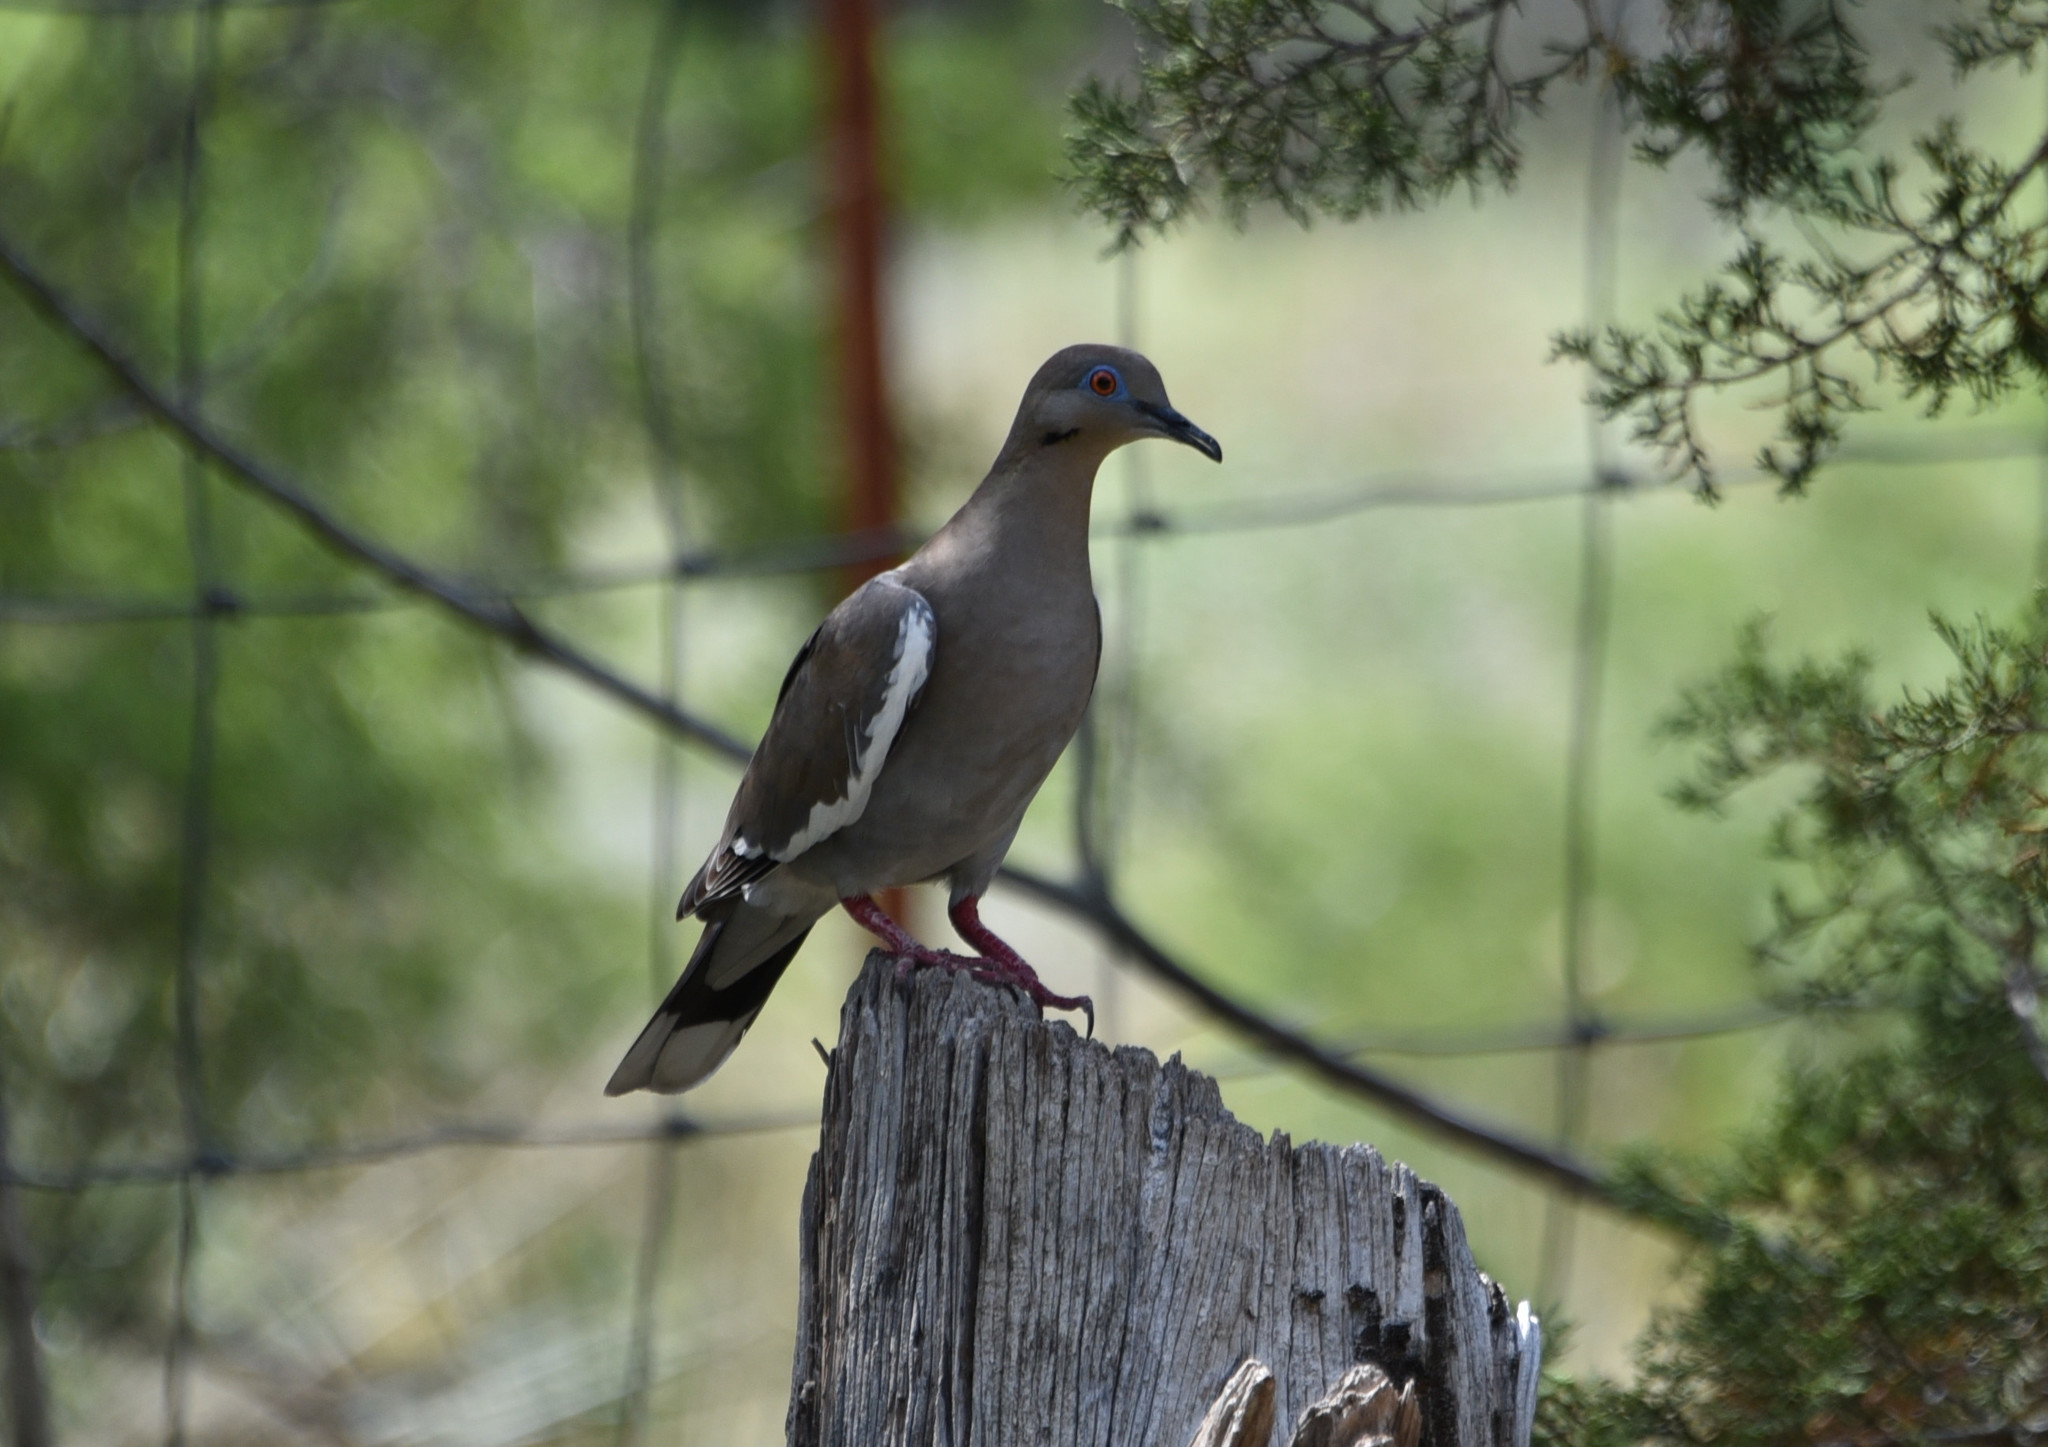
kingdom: Animalia
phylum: Chordata
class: Aves
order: Columbiformes
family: Columbidae
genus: Zenaida
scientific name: Zenaida asiatica
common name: White-winged dove
